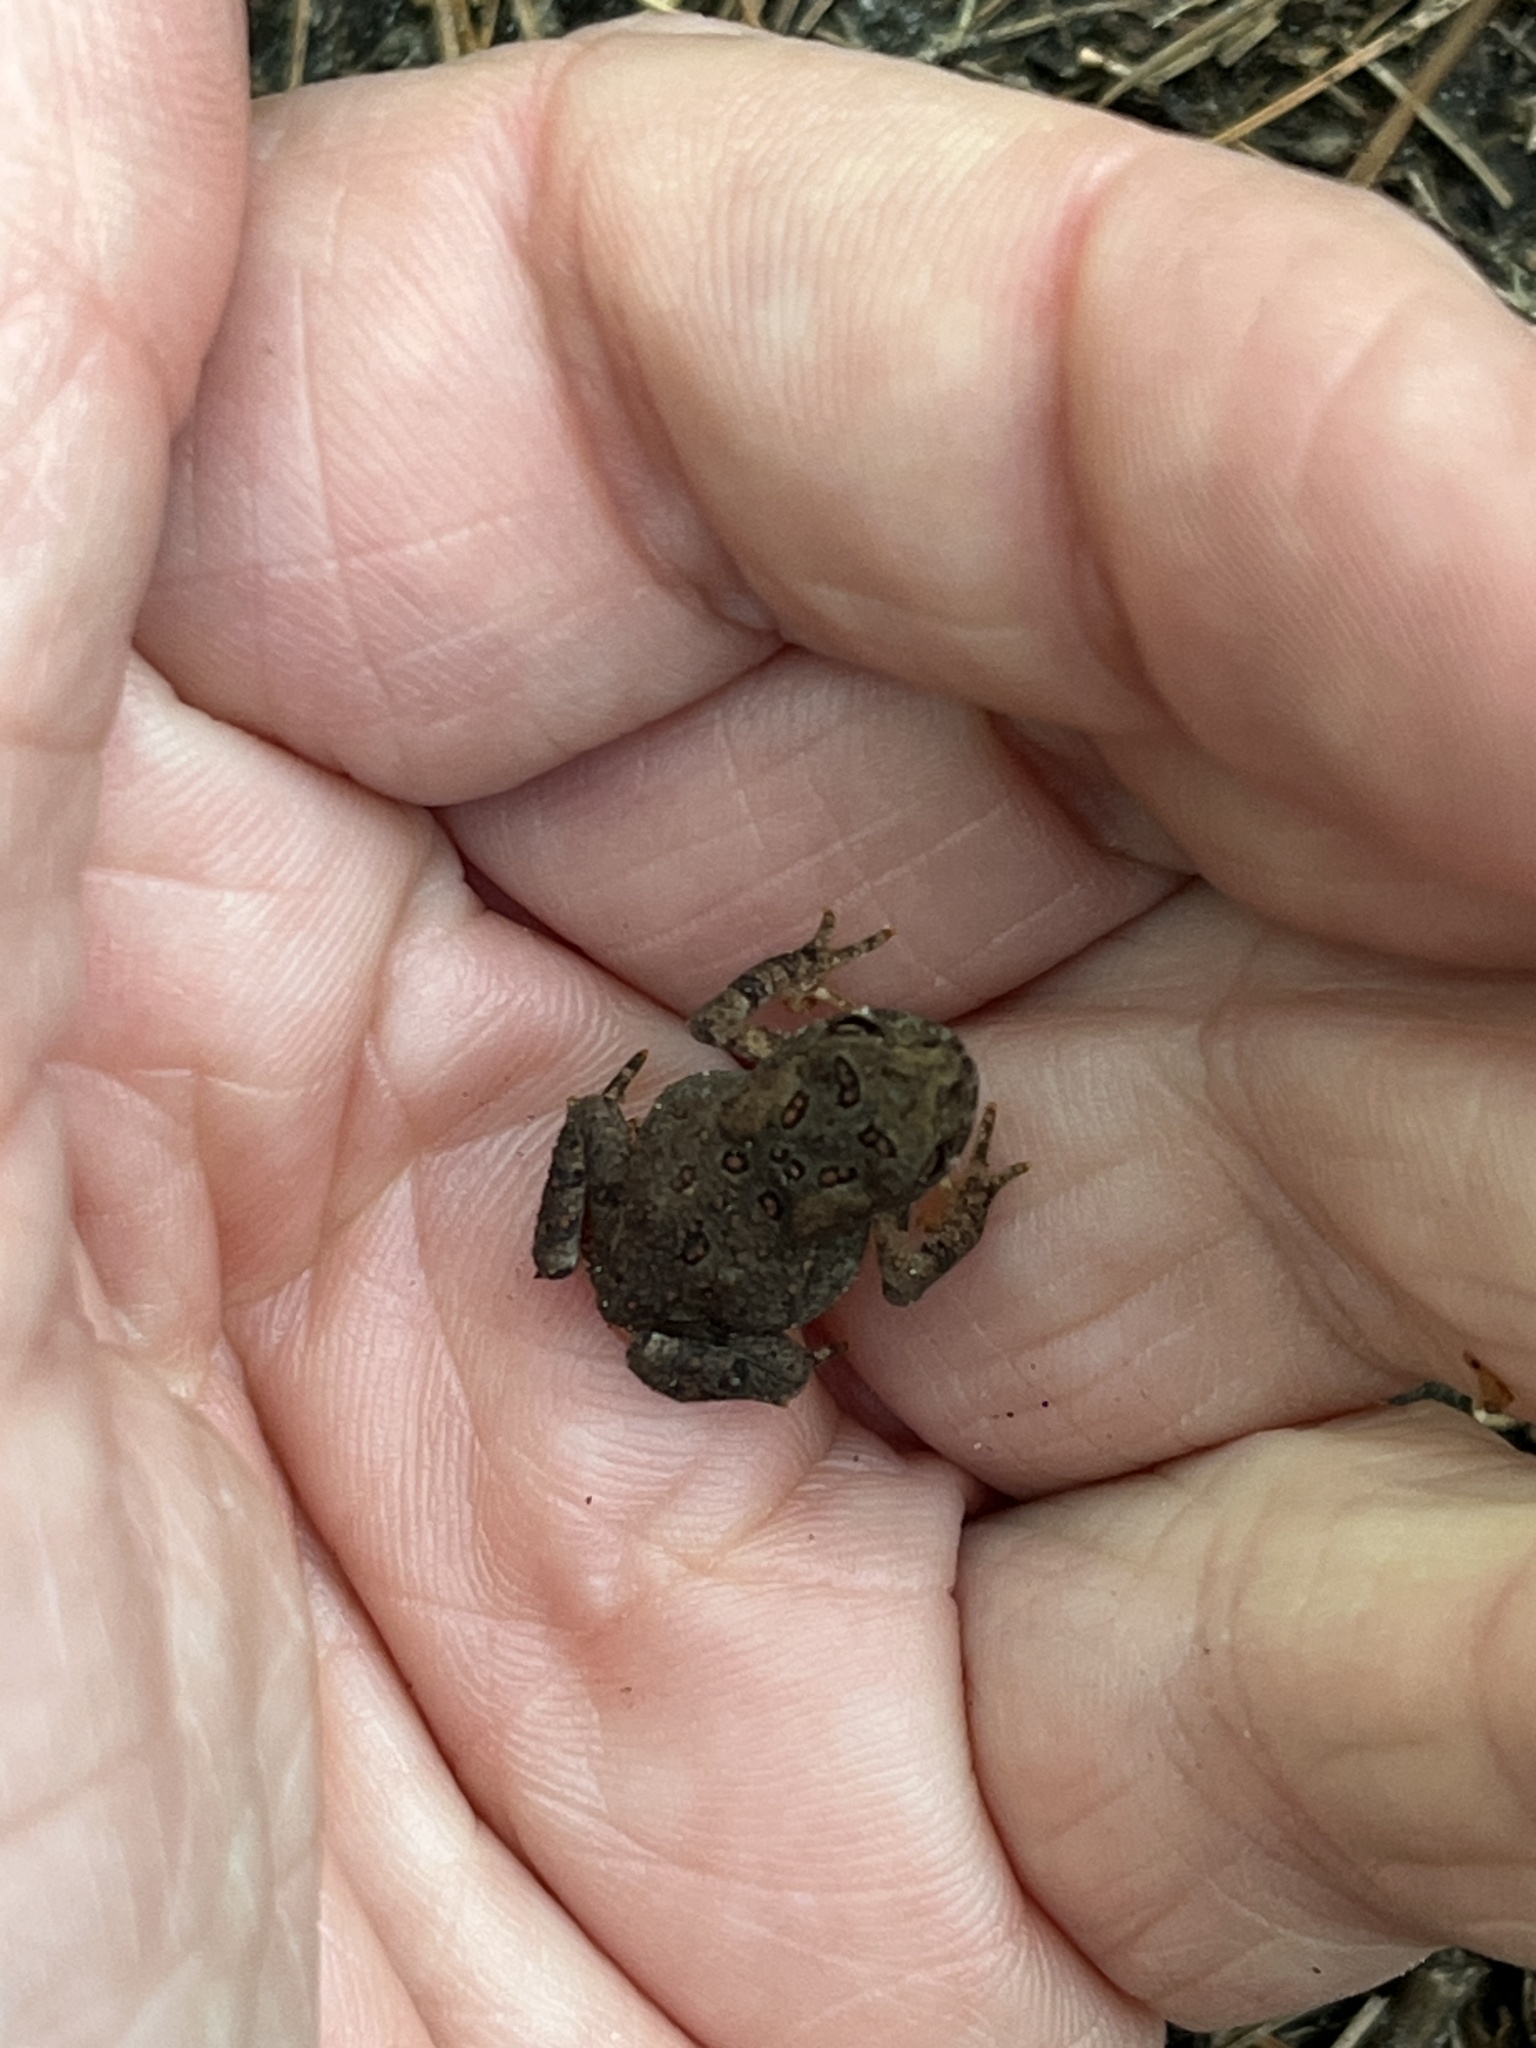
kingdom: Animalia
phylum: Chordata
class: Amphibia
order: Anura
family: Bufonidae
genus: Anaxyrus
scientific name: Anaxyrus americanus
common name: American toad
